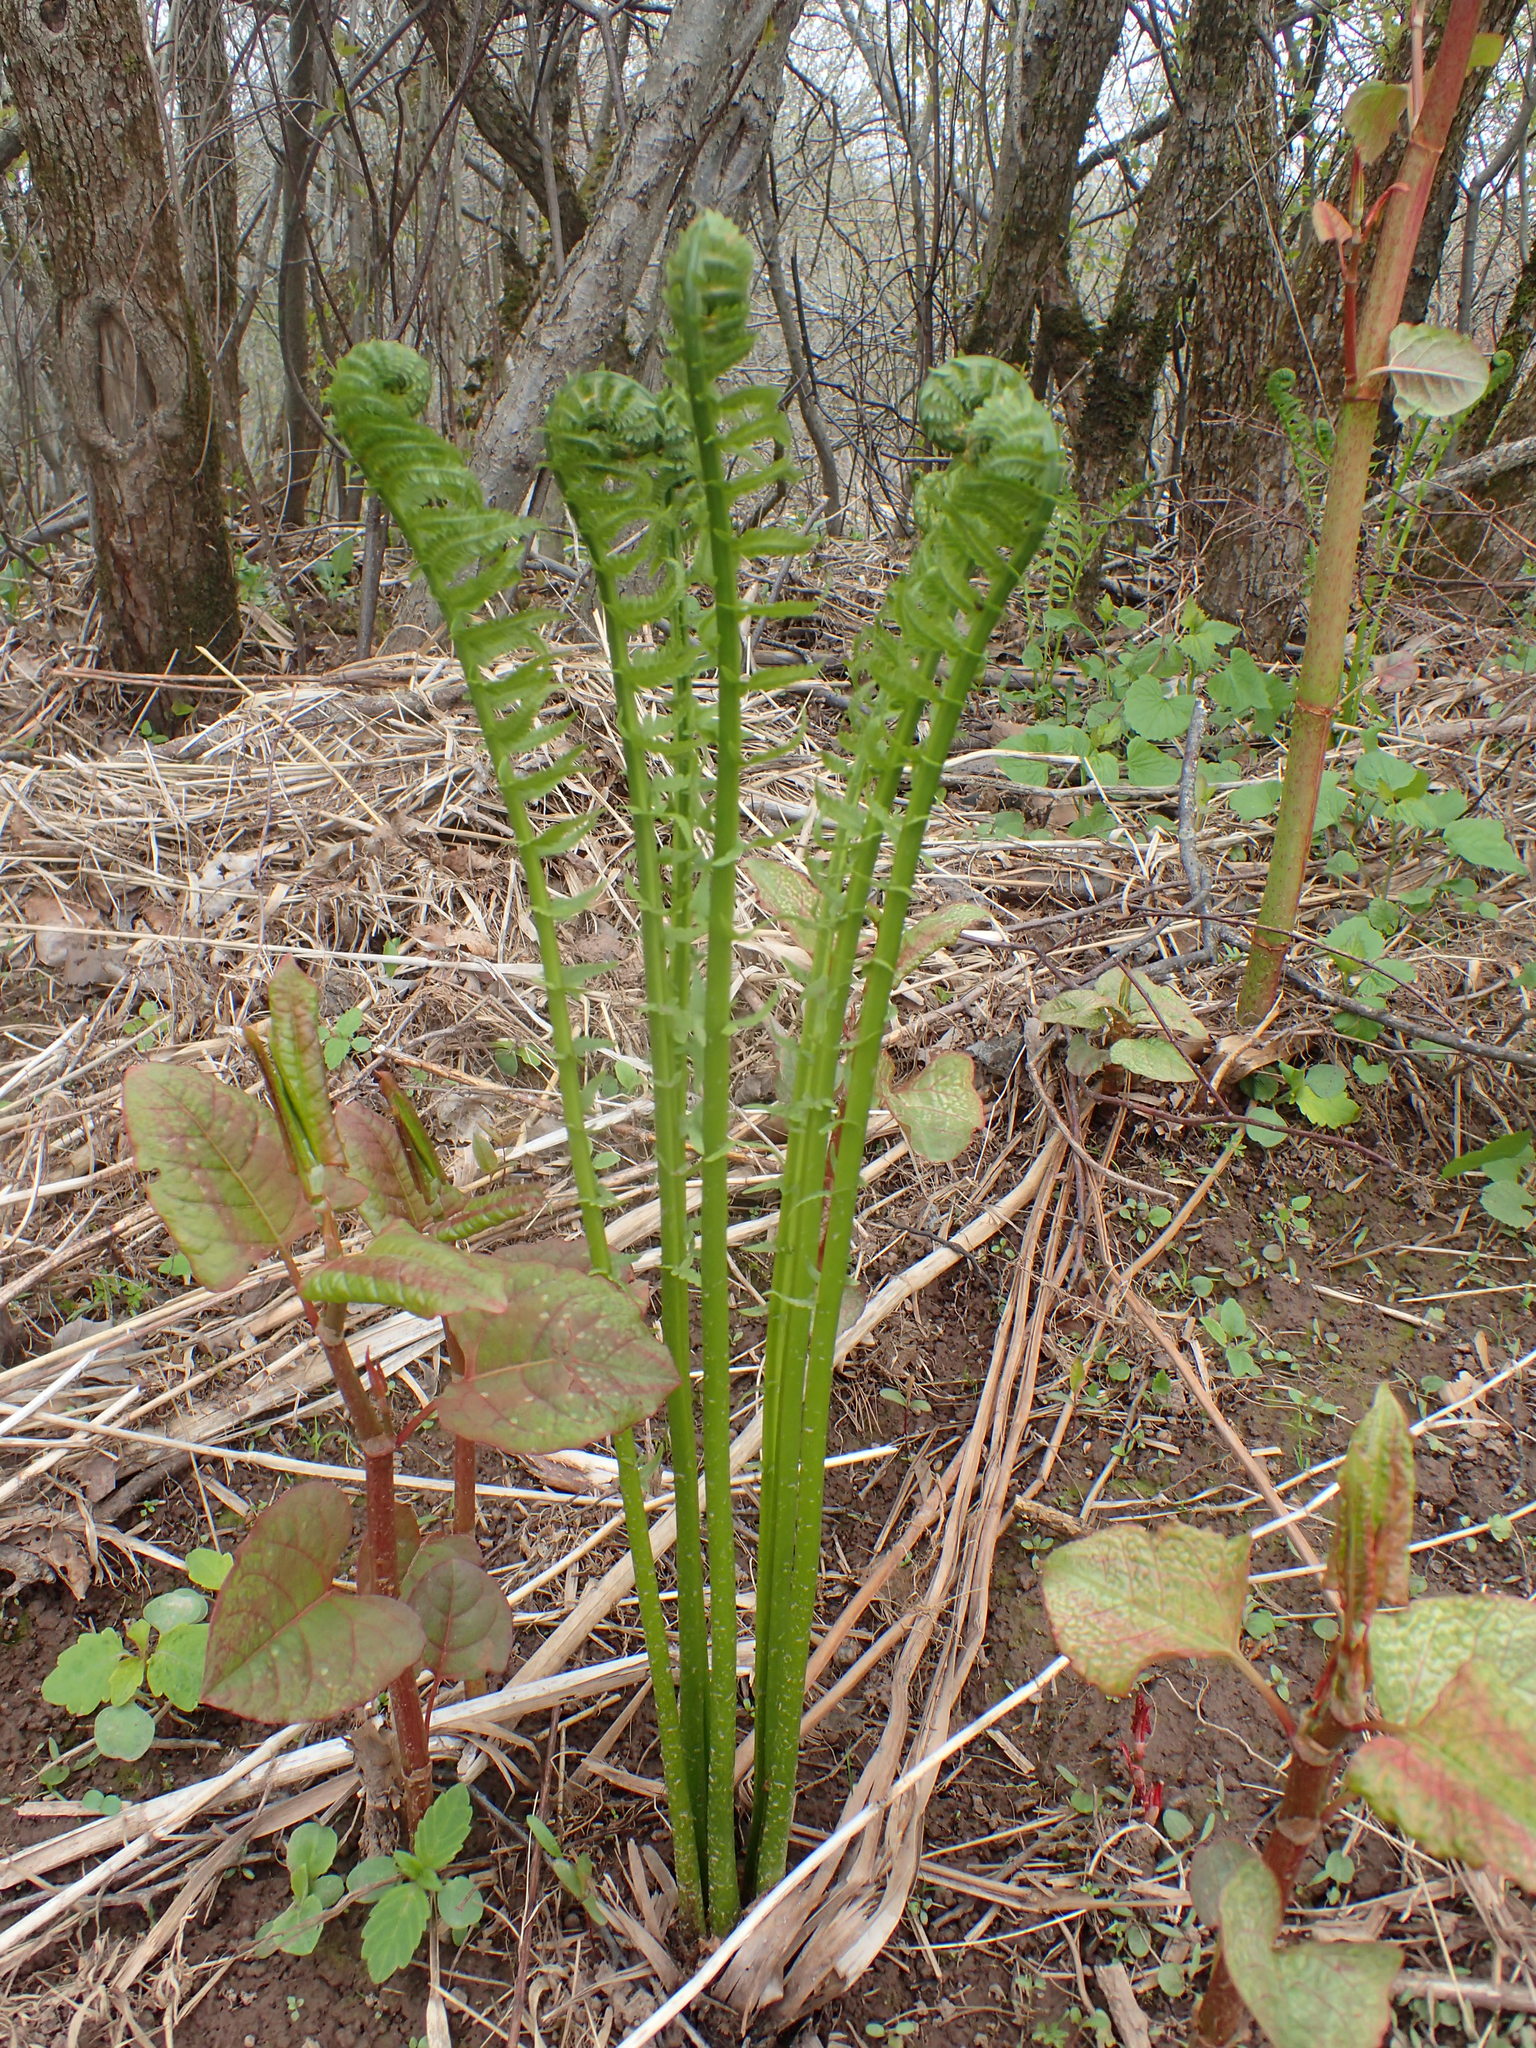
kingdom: Plantae
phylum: Tracheophyta
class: Polypodiopsida
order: Polypodiales
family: Onocleaceae
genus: Matteuccia
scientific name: Matteuccia struthiopteris
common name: Ostrich fern
